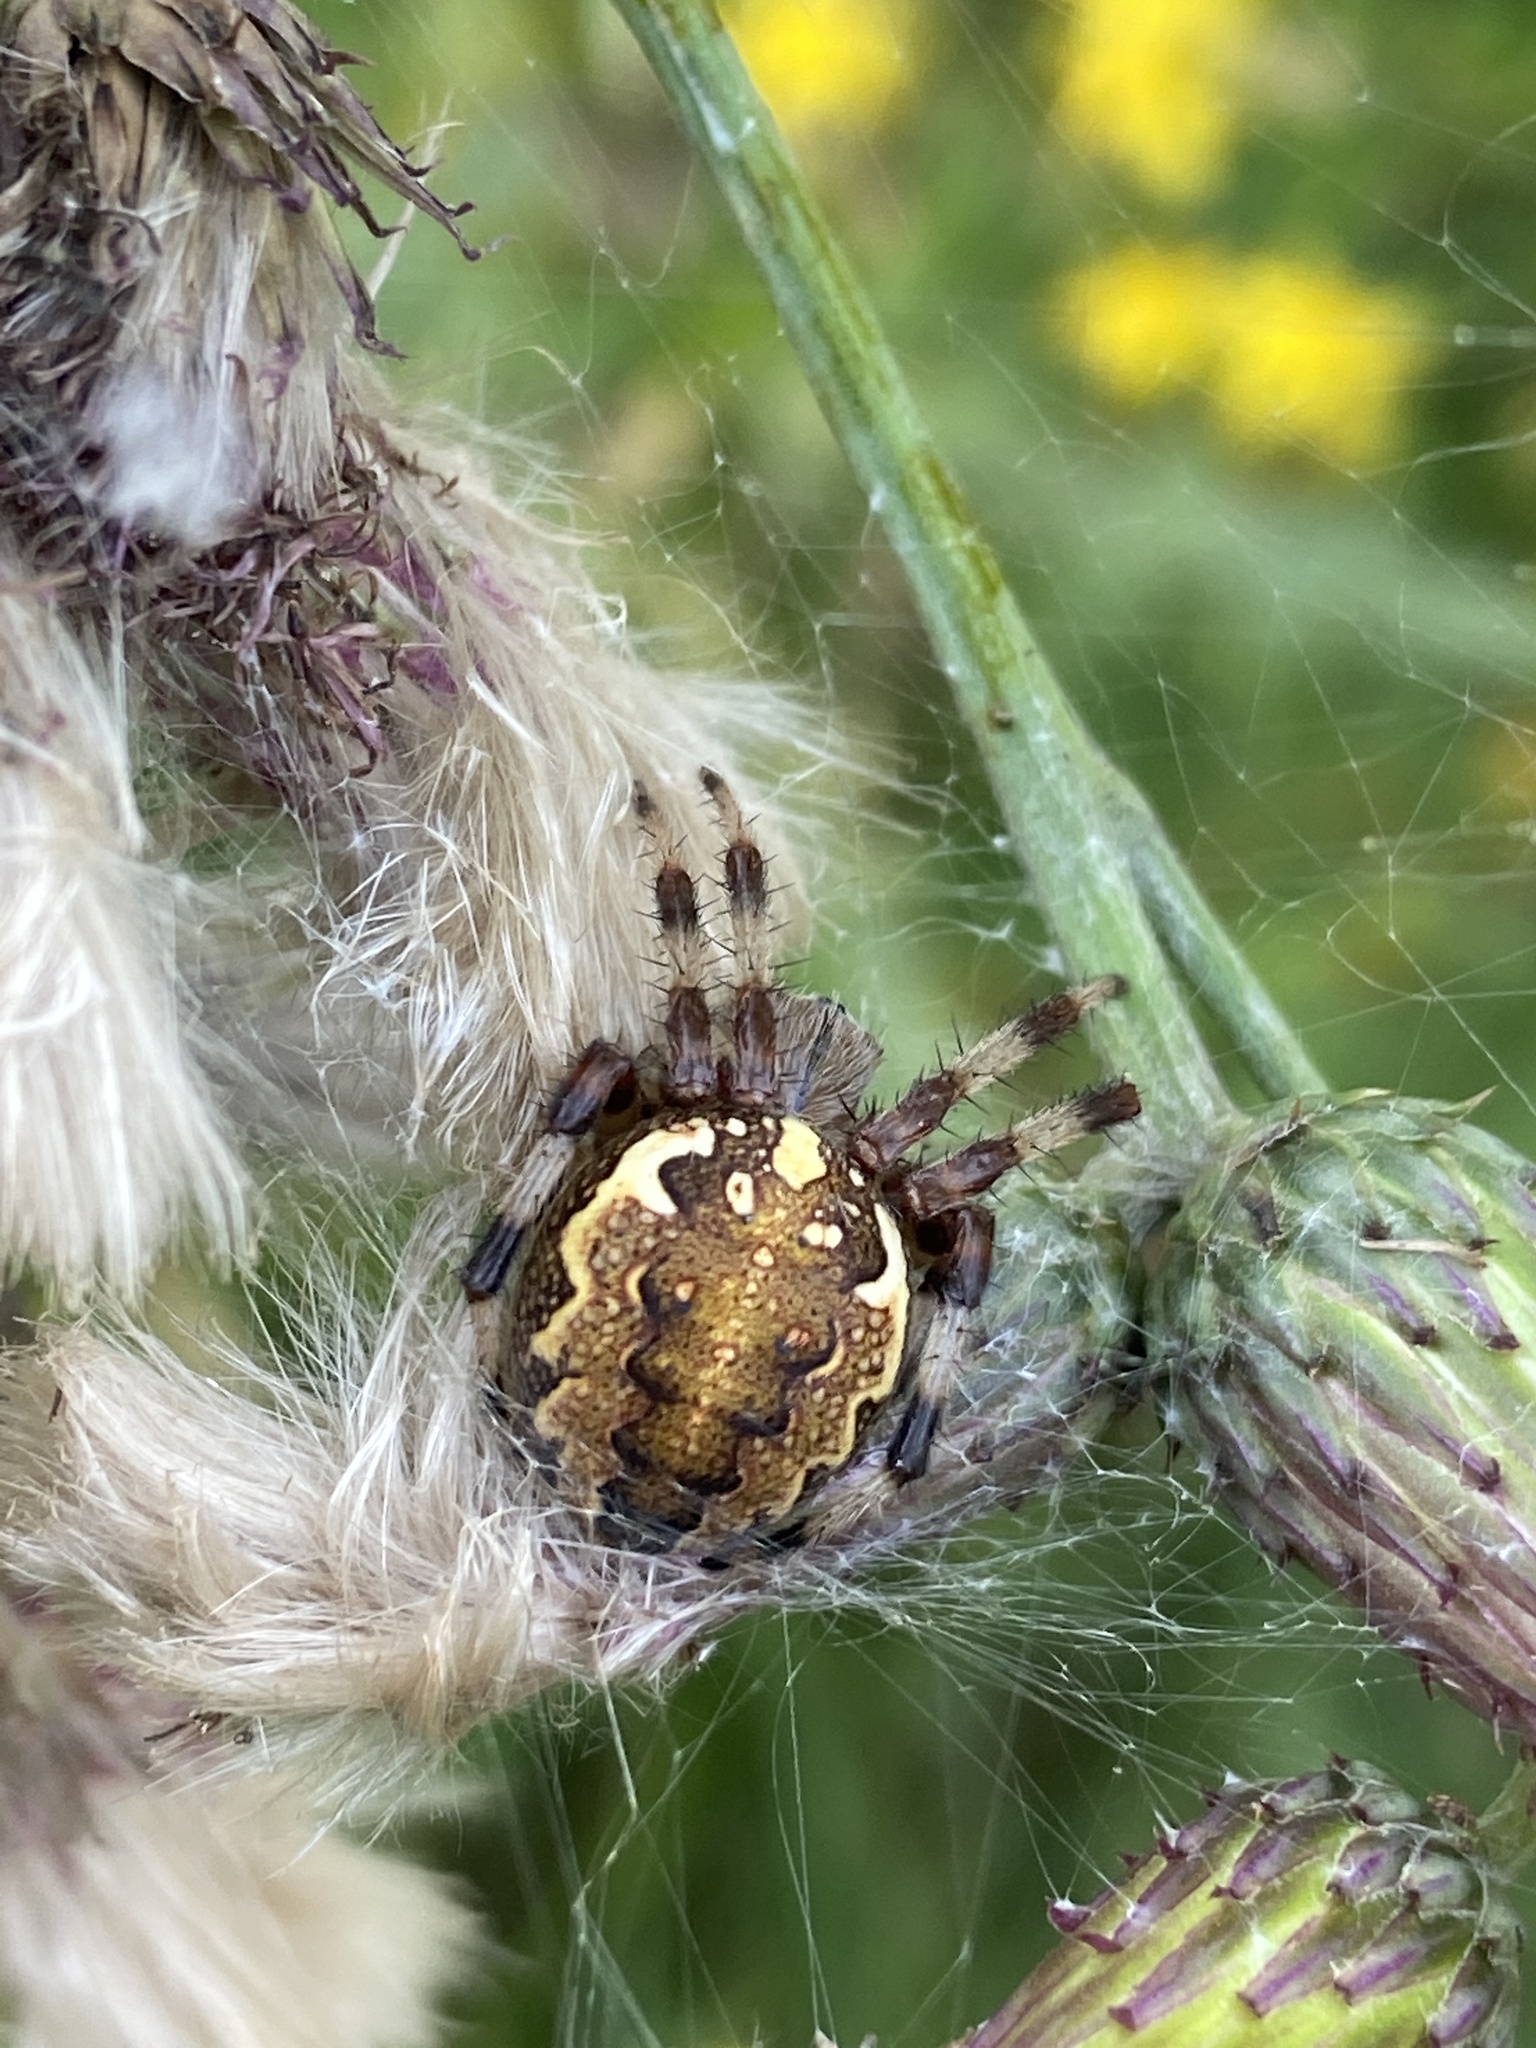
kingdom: Animalia
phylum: Arthropoda
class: Arachnida
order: Araneae
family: Araneidae
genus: Araneus
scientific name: Araneus marmoreus
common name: Marbled orbweaver
